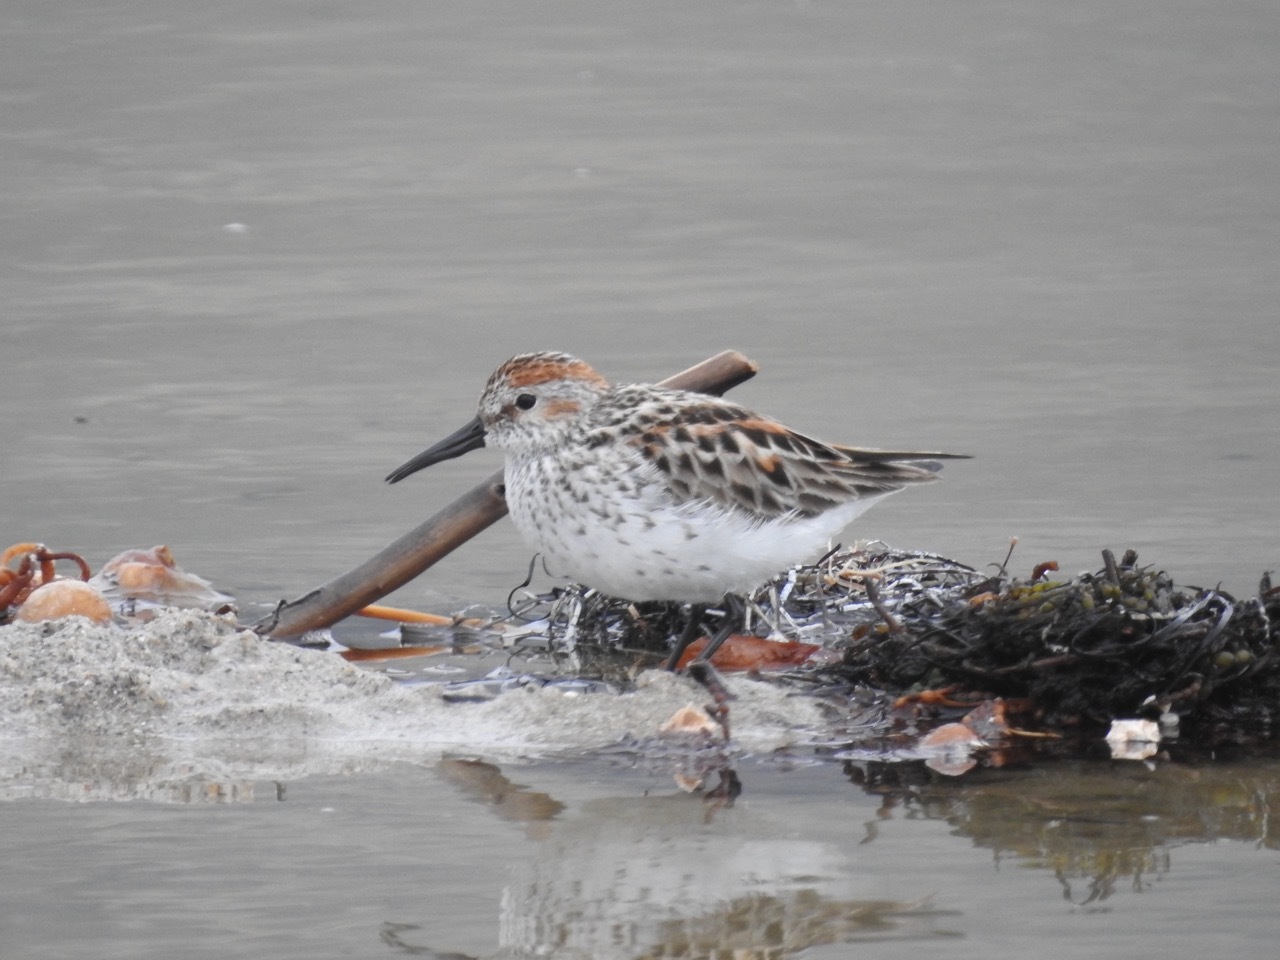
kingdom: Animalia
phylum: Chordata
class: Aves
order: Charadriiformes
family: Scolopacidae
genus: Calidris
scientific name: Calidris mauri
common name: Western sandpiper
